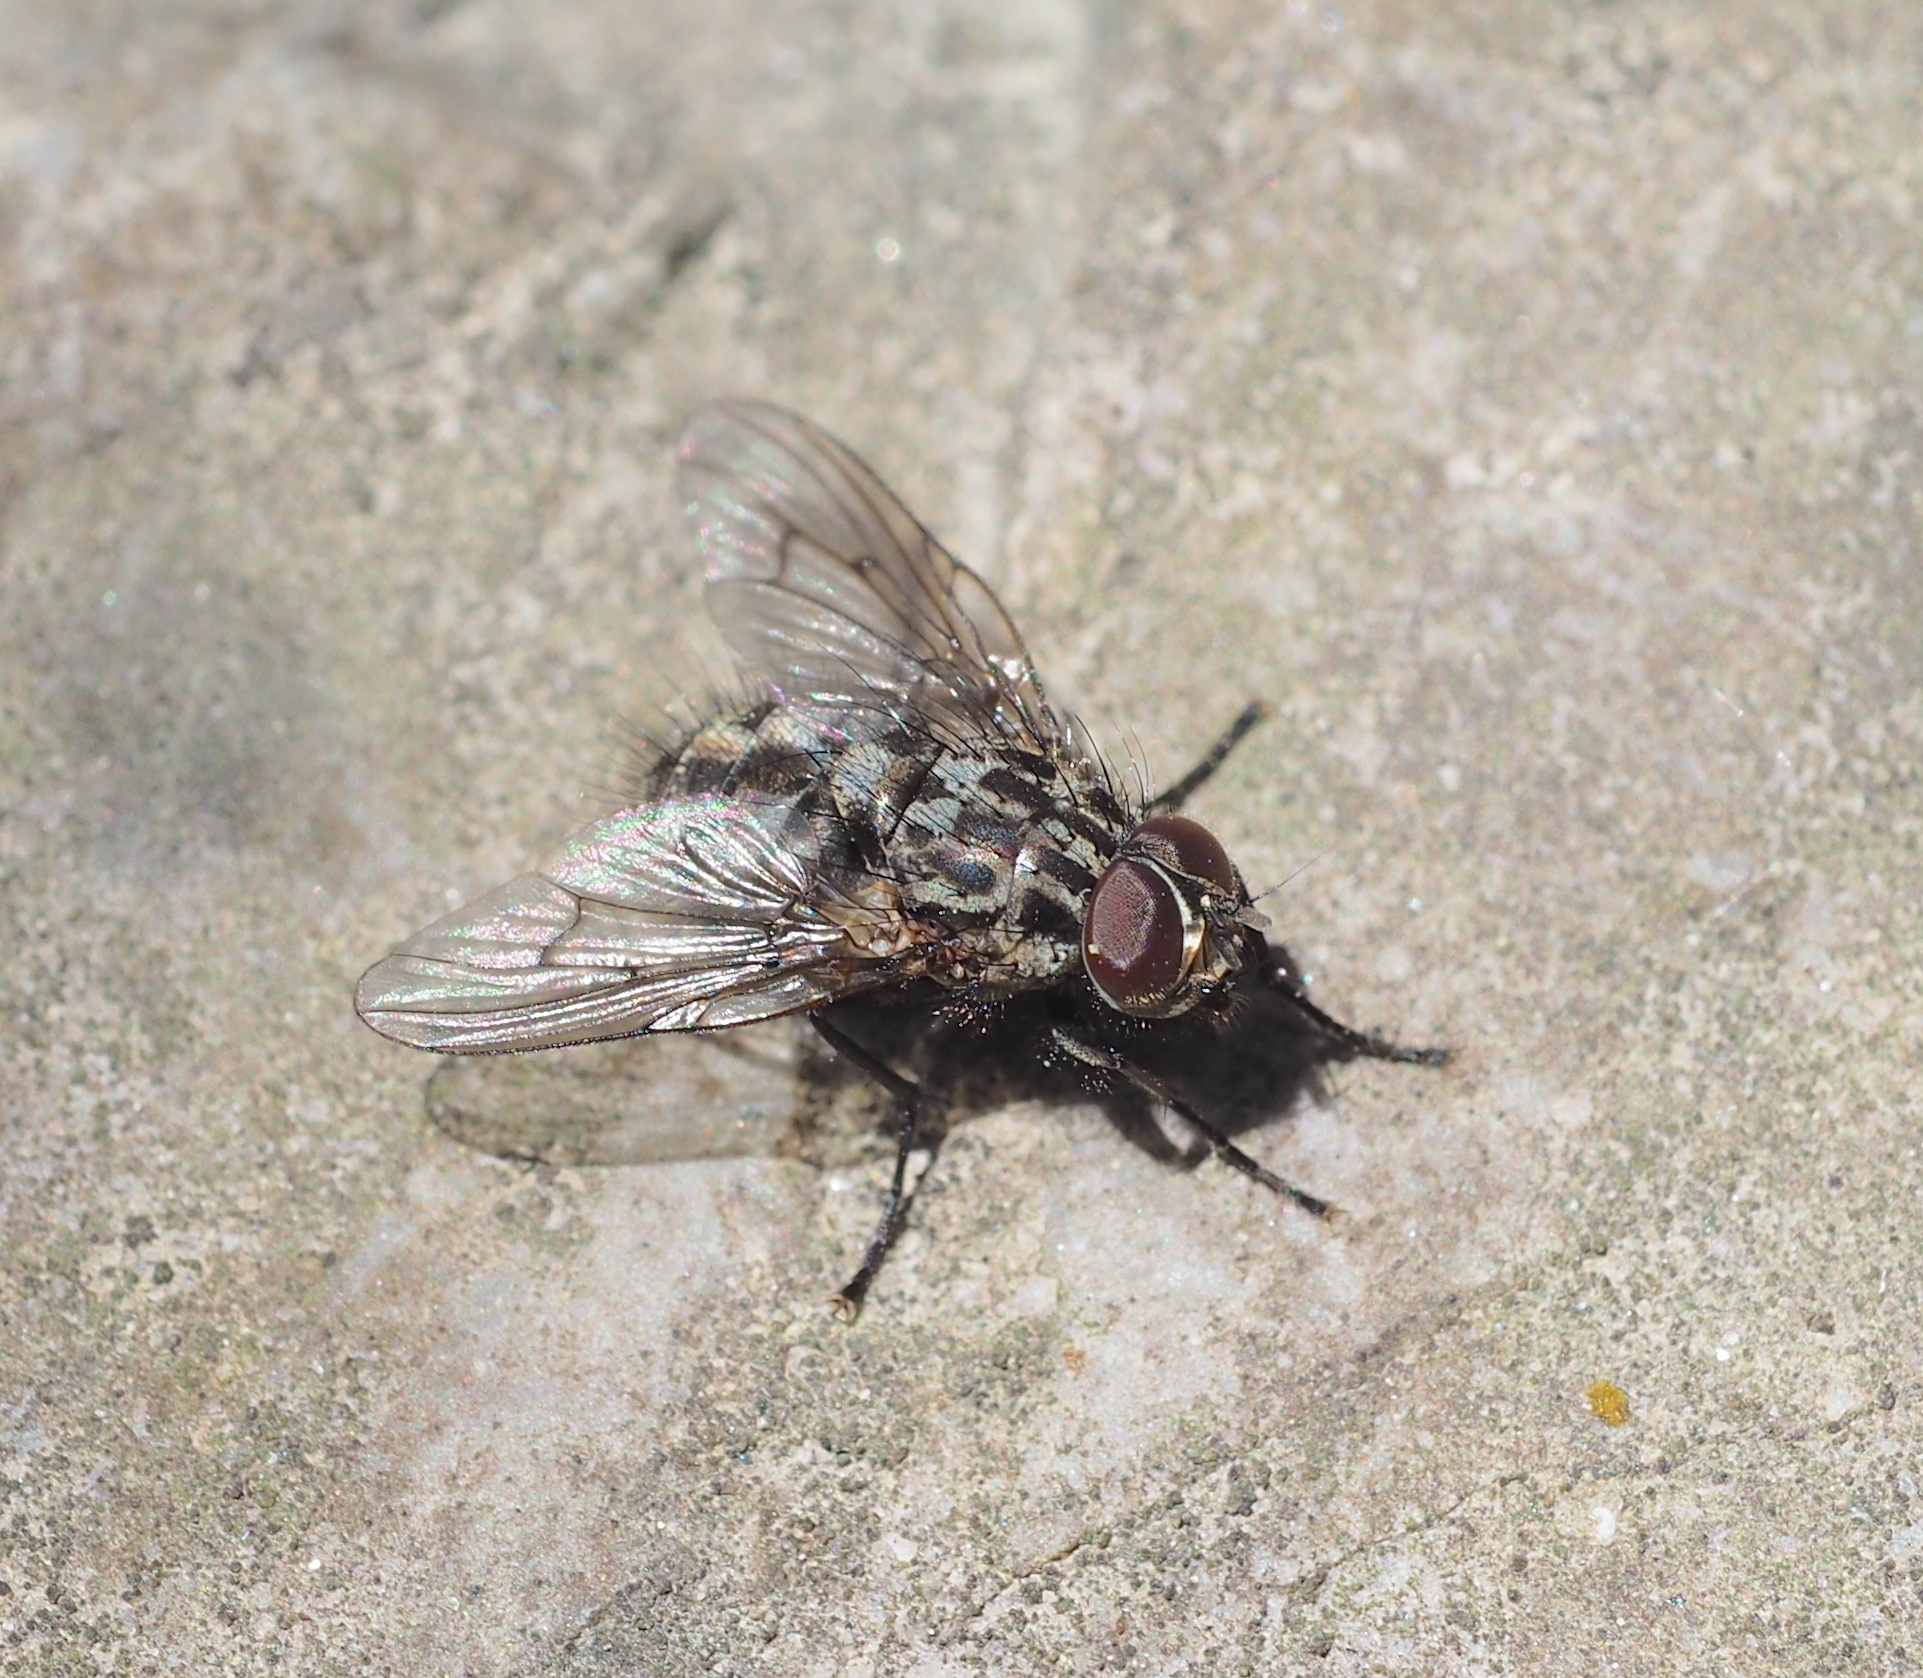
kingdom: Animalia
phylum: Arthropoda
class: Insecta
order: Diptera
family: Muscidae
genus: Phaonia
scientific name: Phaonia trimaculata
